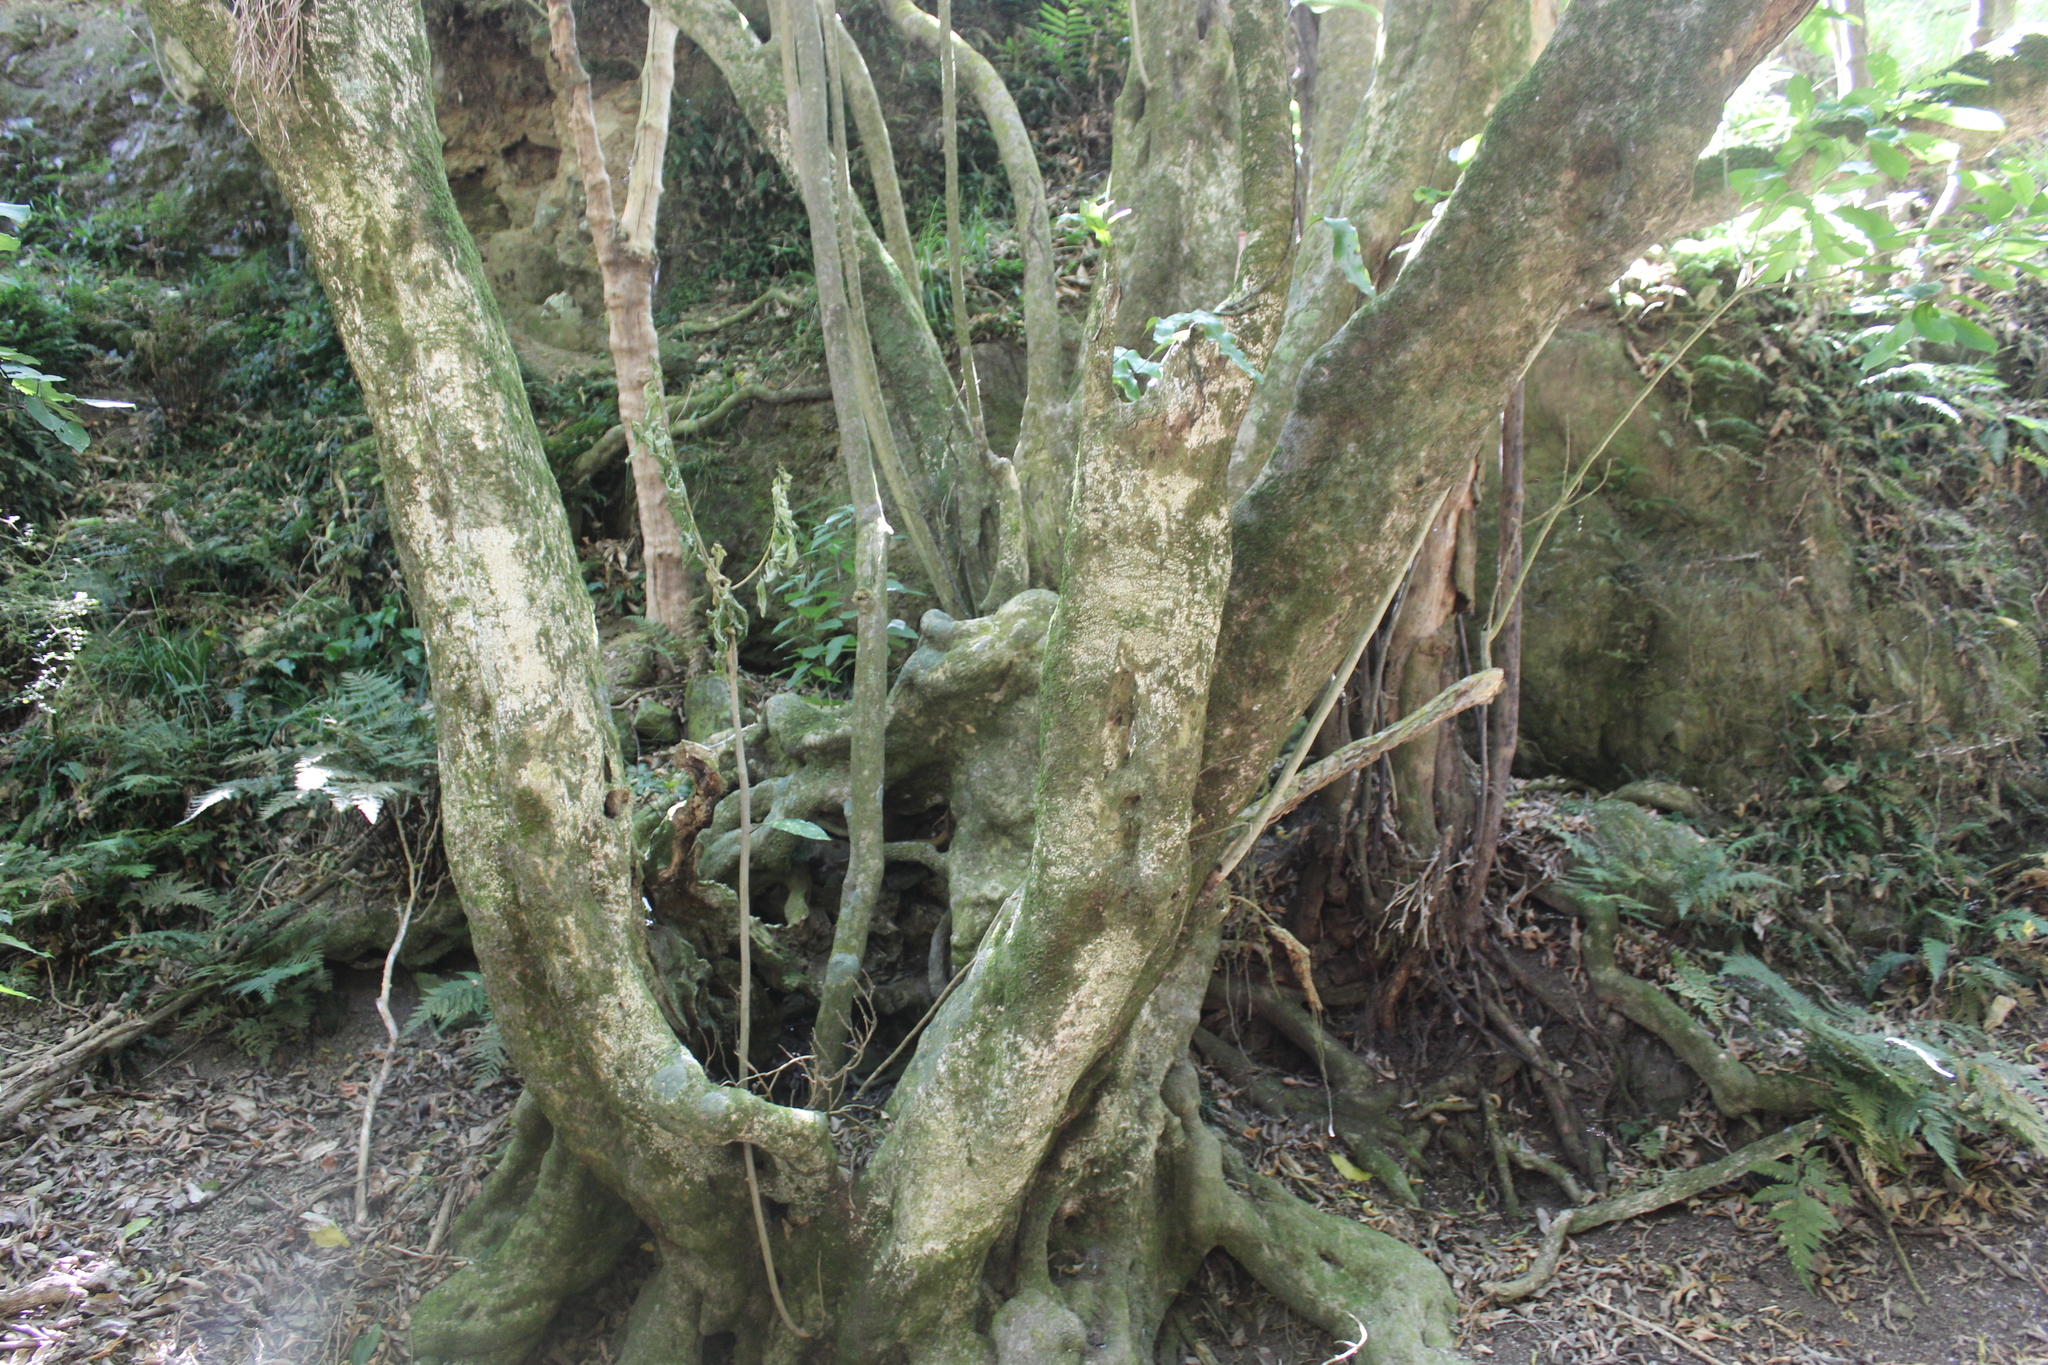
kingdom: Plantae
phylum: Tracheophyta
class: Magnoliopsida
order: Malpighiales
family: Violaceae
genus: Melicytus
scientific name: Melicytus ramiflorus
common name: Mahoe
